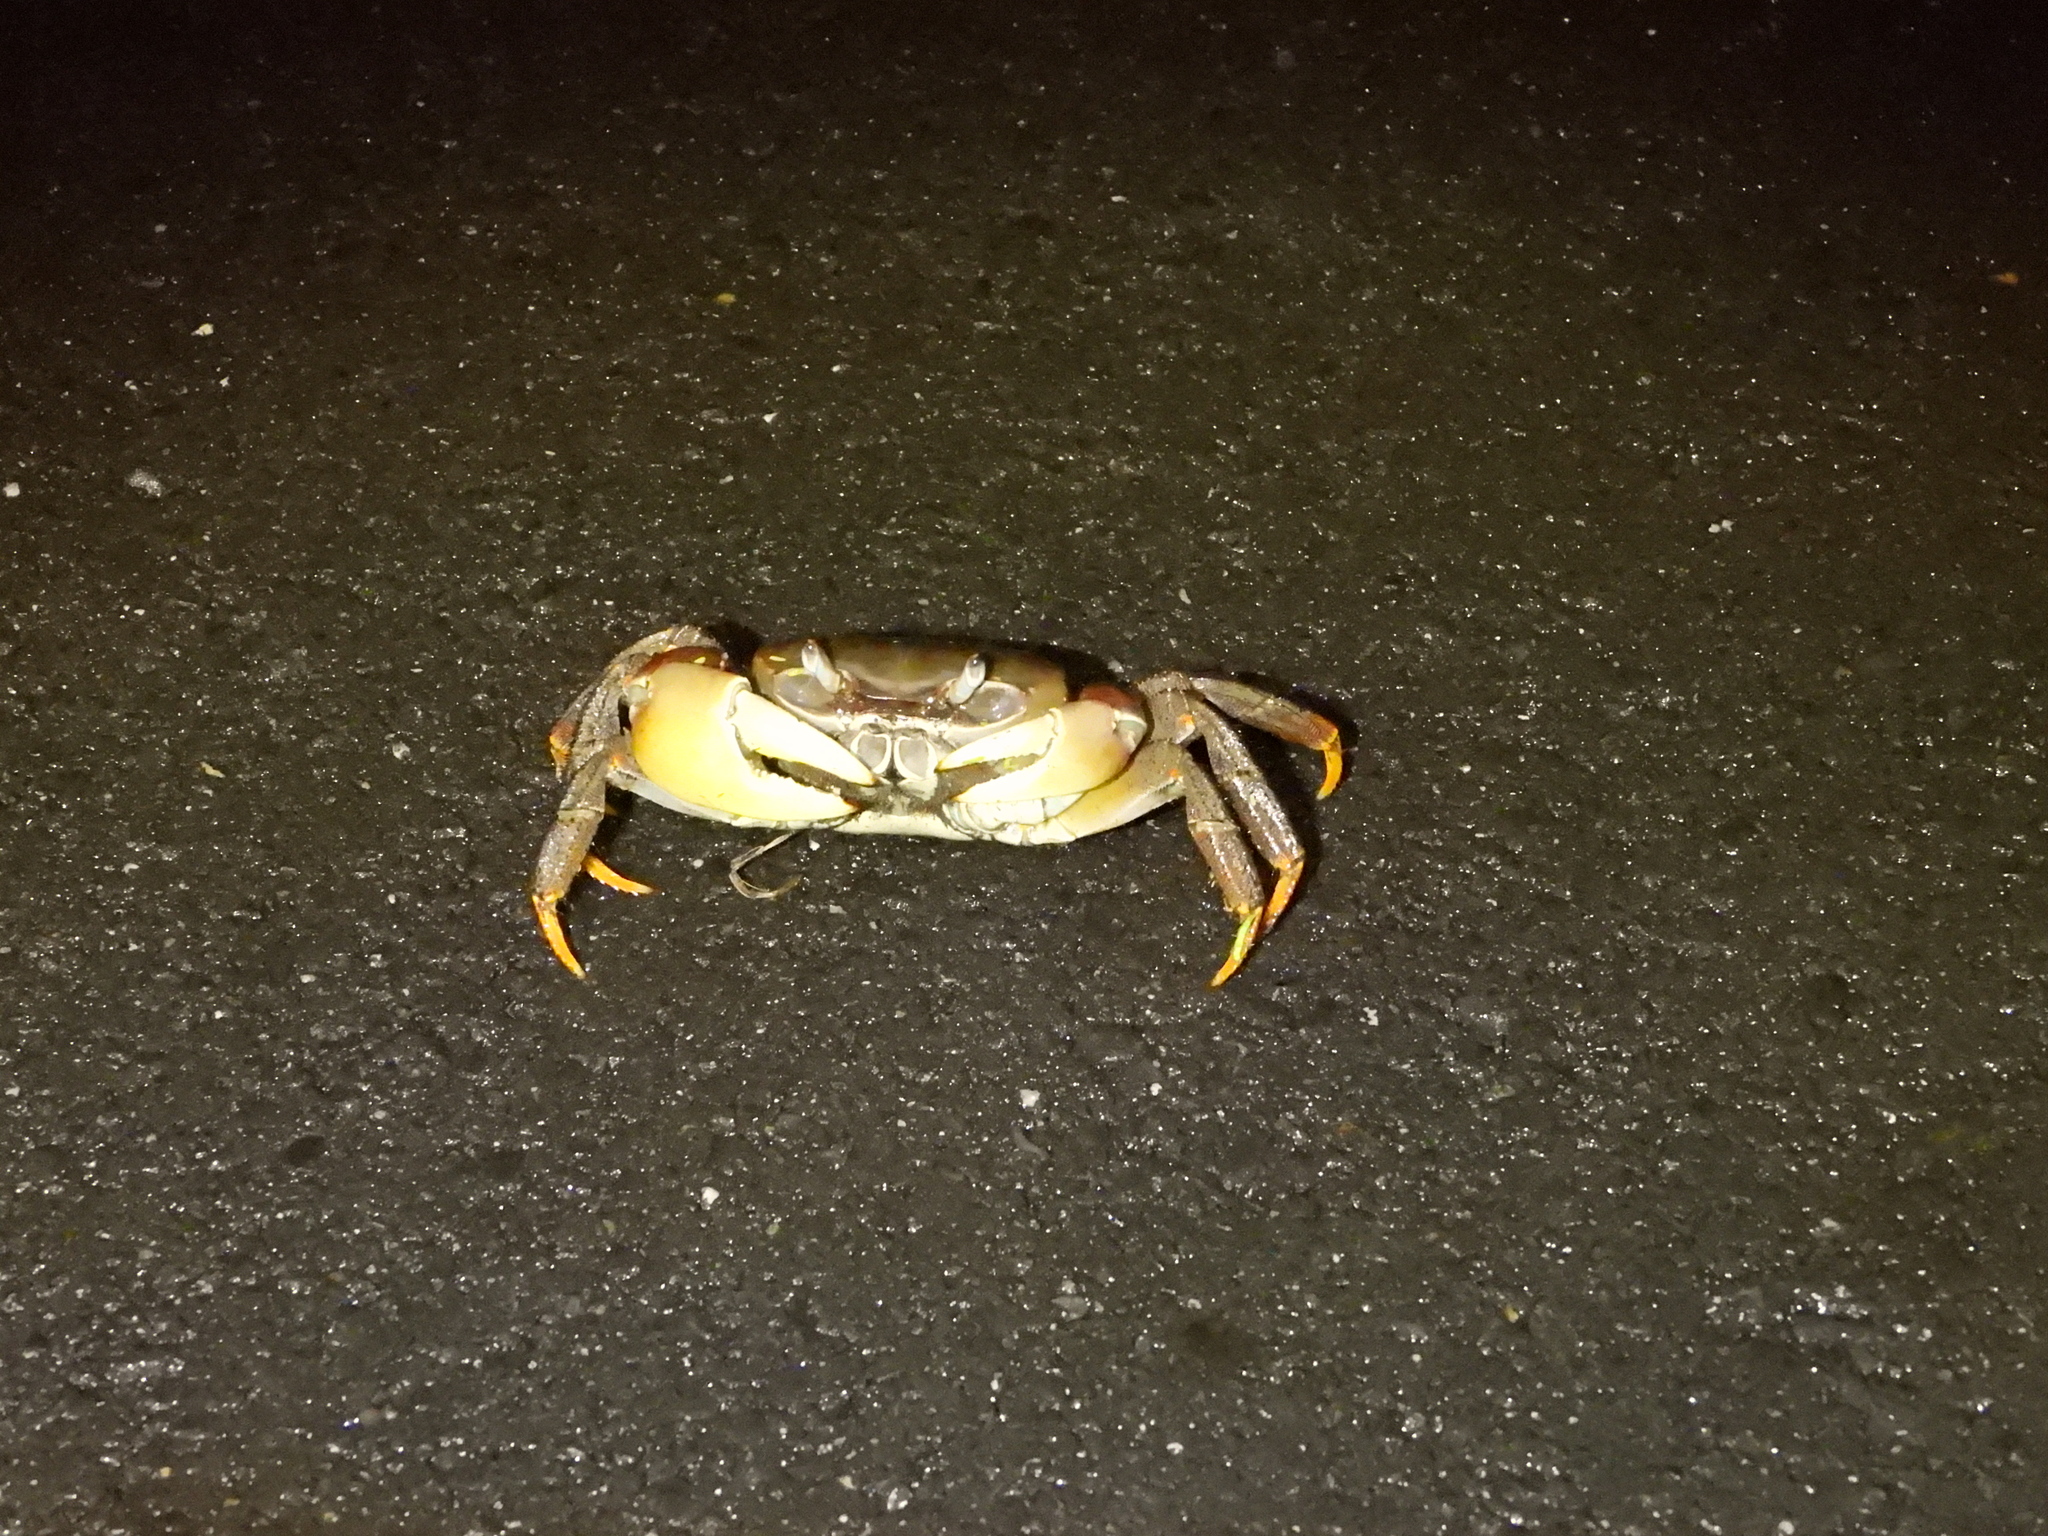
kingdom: Animalia
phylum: Arthropoda
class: Malacostraca
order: Decapoda
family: Gecarcinidae
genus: Cardisoma
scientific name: Cardisoma carnifex
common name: Brown land crab
